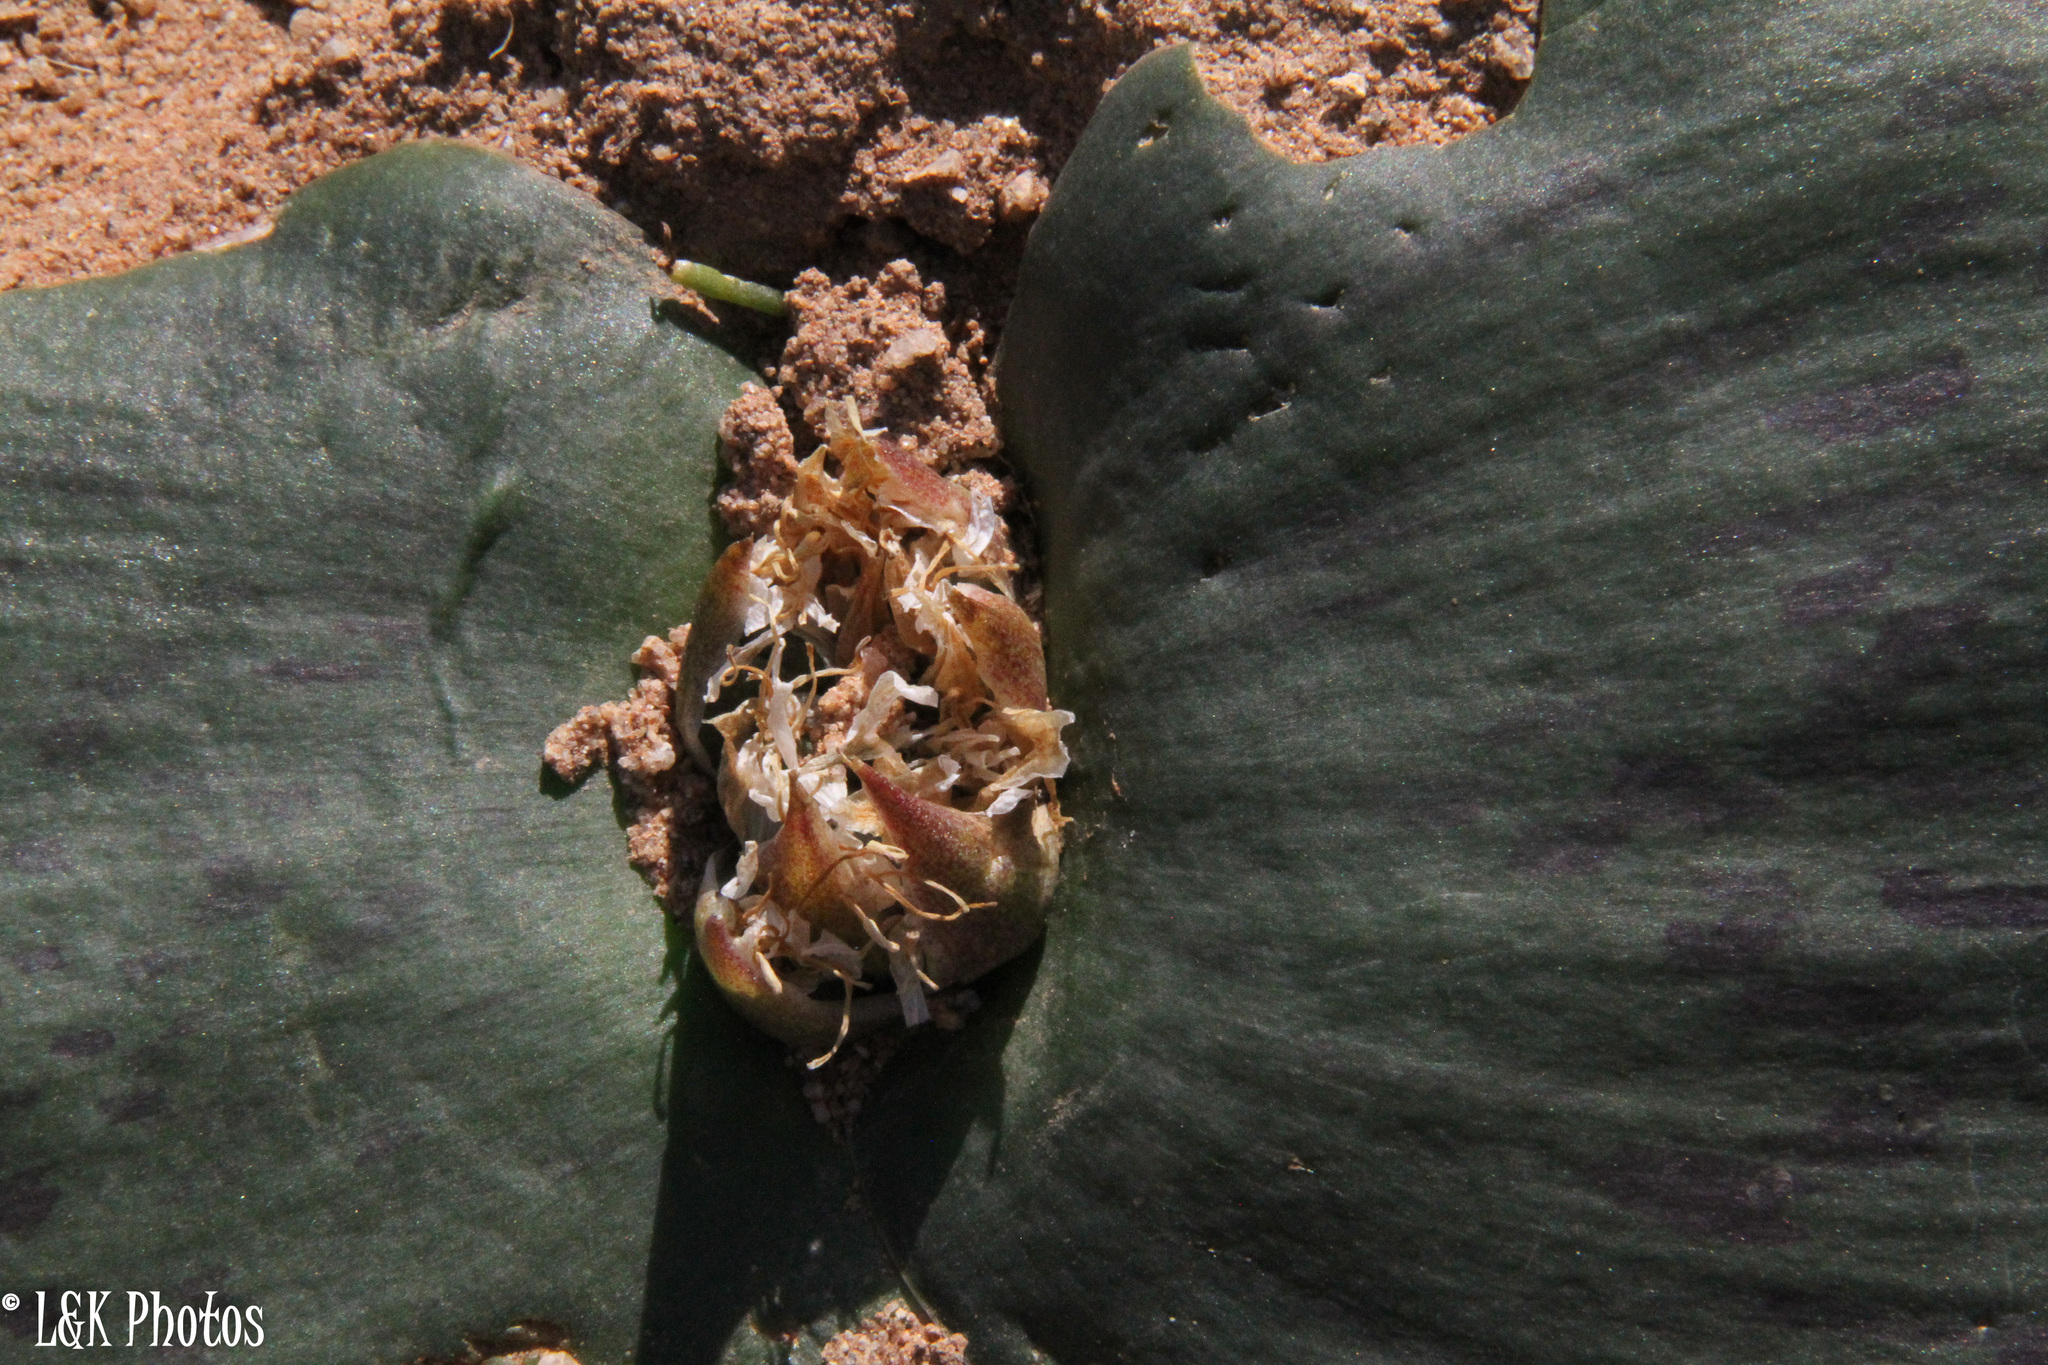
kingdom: Plantae
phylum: Tracheophyta
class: Liliopsida
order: Asparagales
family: Asparagaceae
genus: Massonia
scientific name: Massonia depressa
